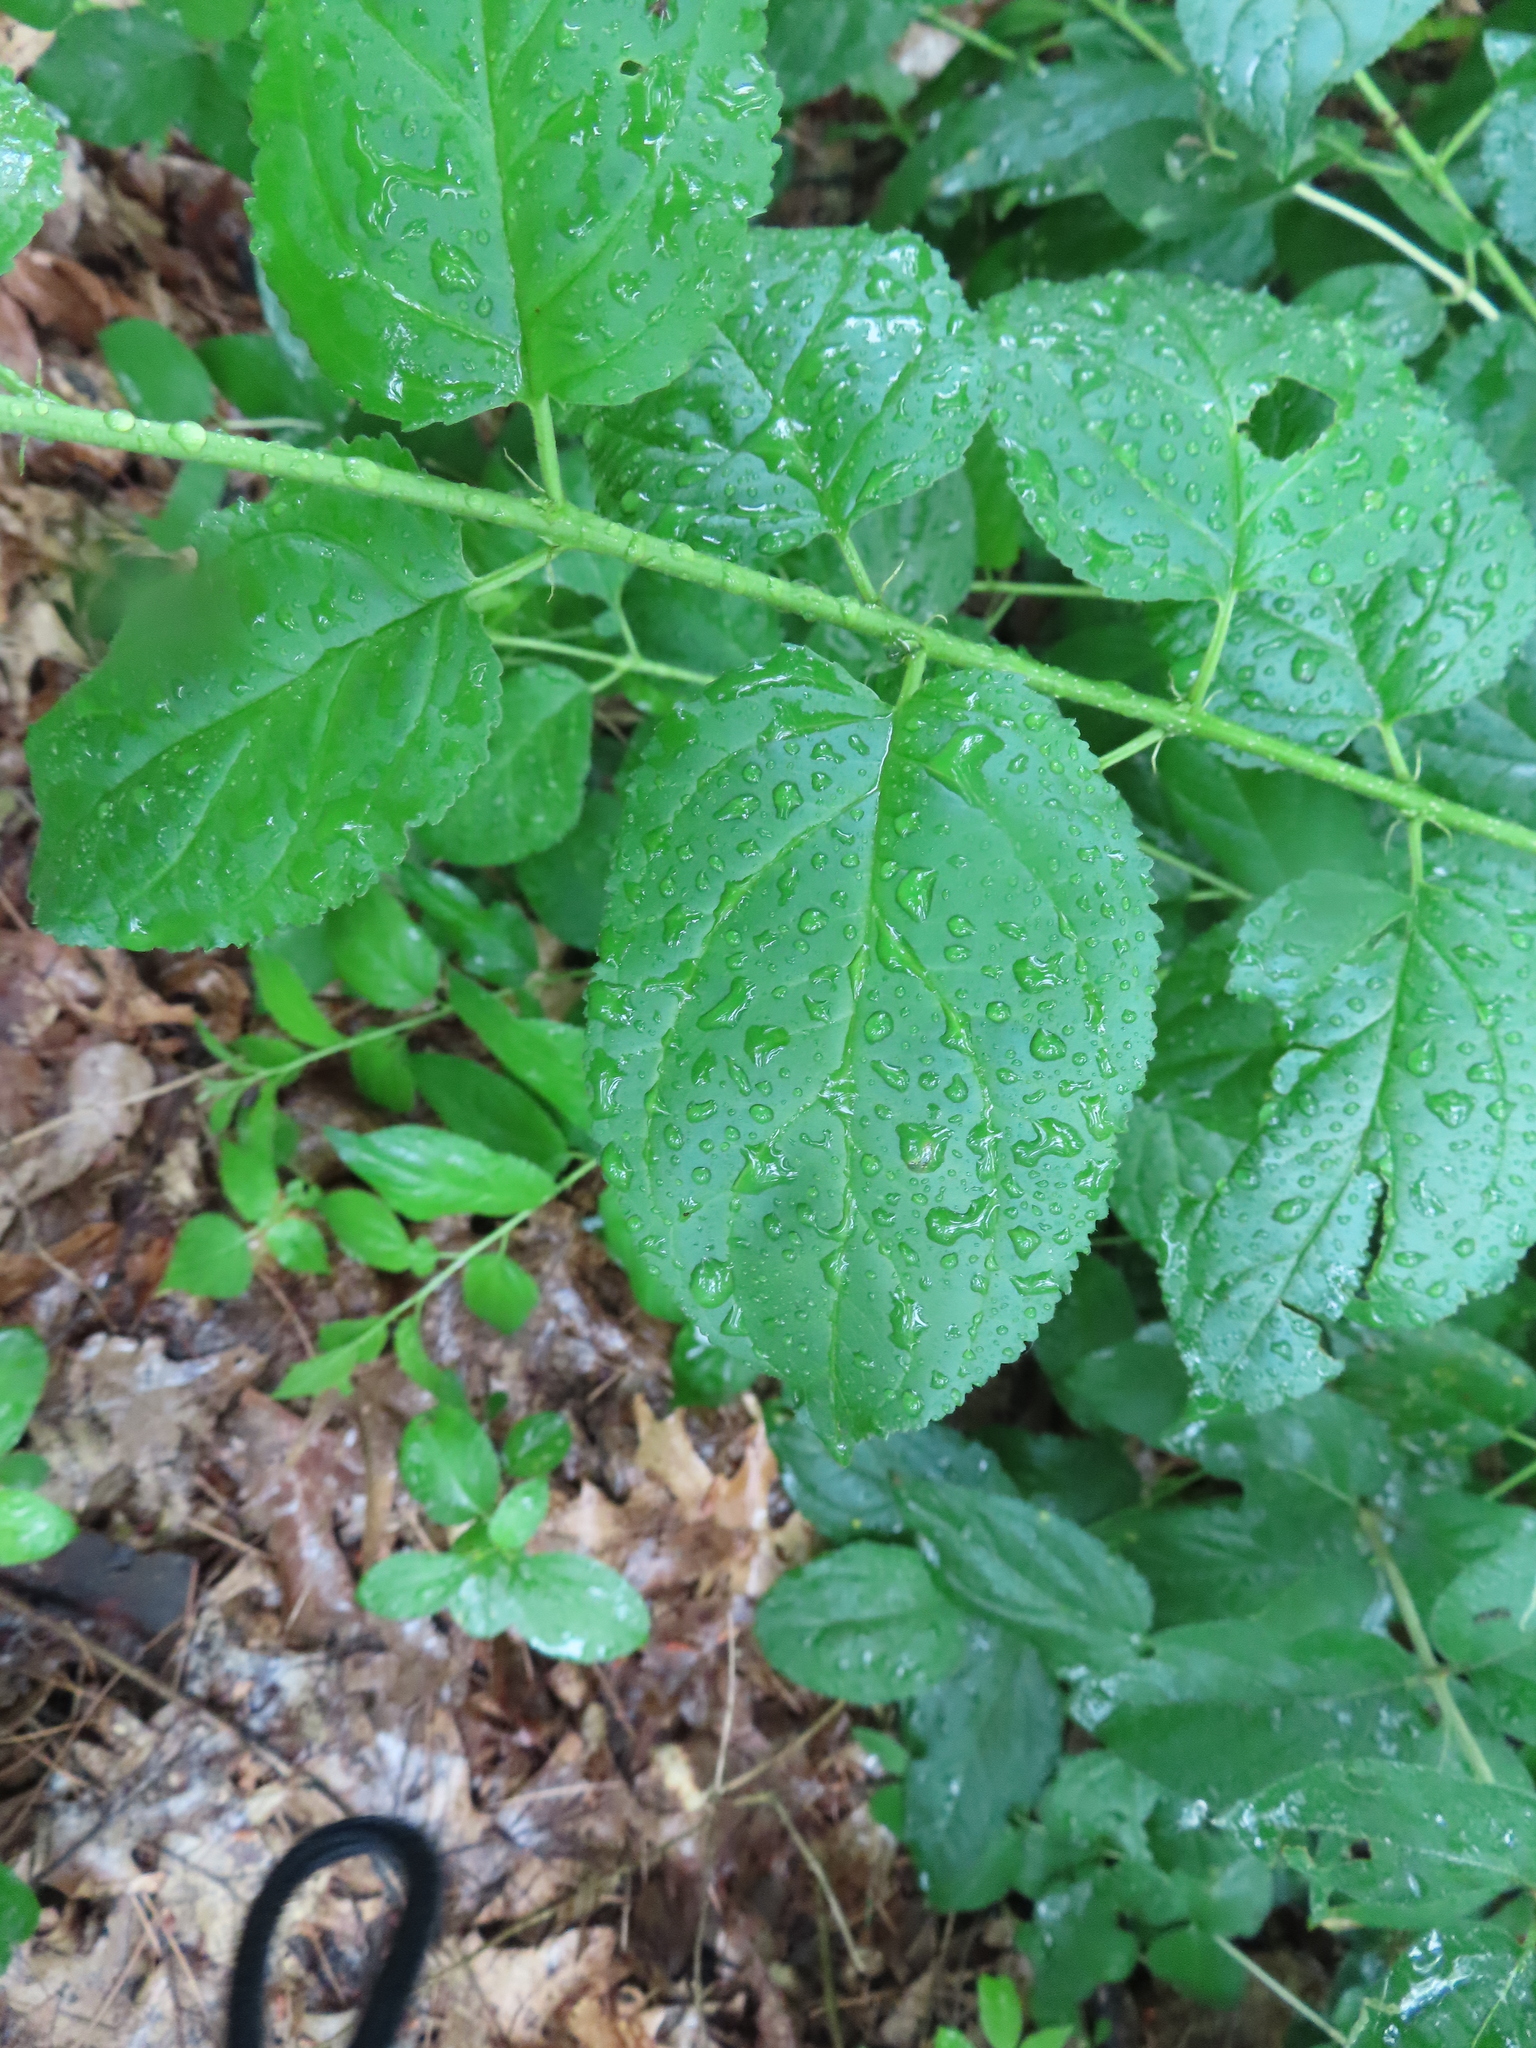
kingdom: Plantae
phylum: Tracheophyta
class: Magnoliopsida
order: Rosales
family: Rhamnaceae
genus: Rhamnus
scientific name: Rhamnus cathartica
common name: Common buckthorn
